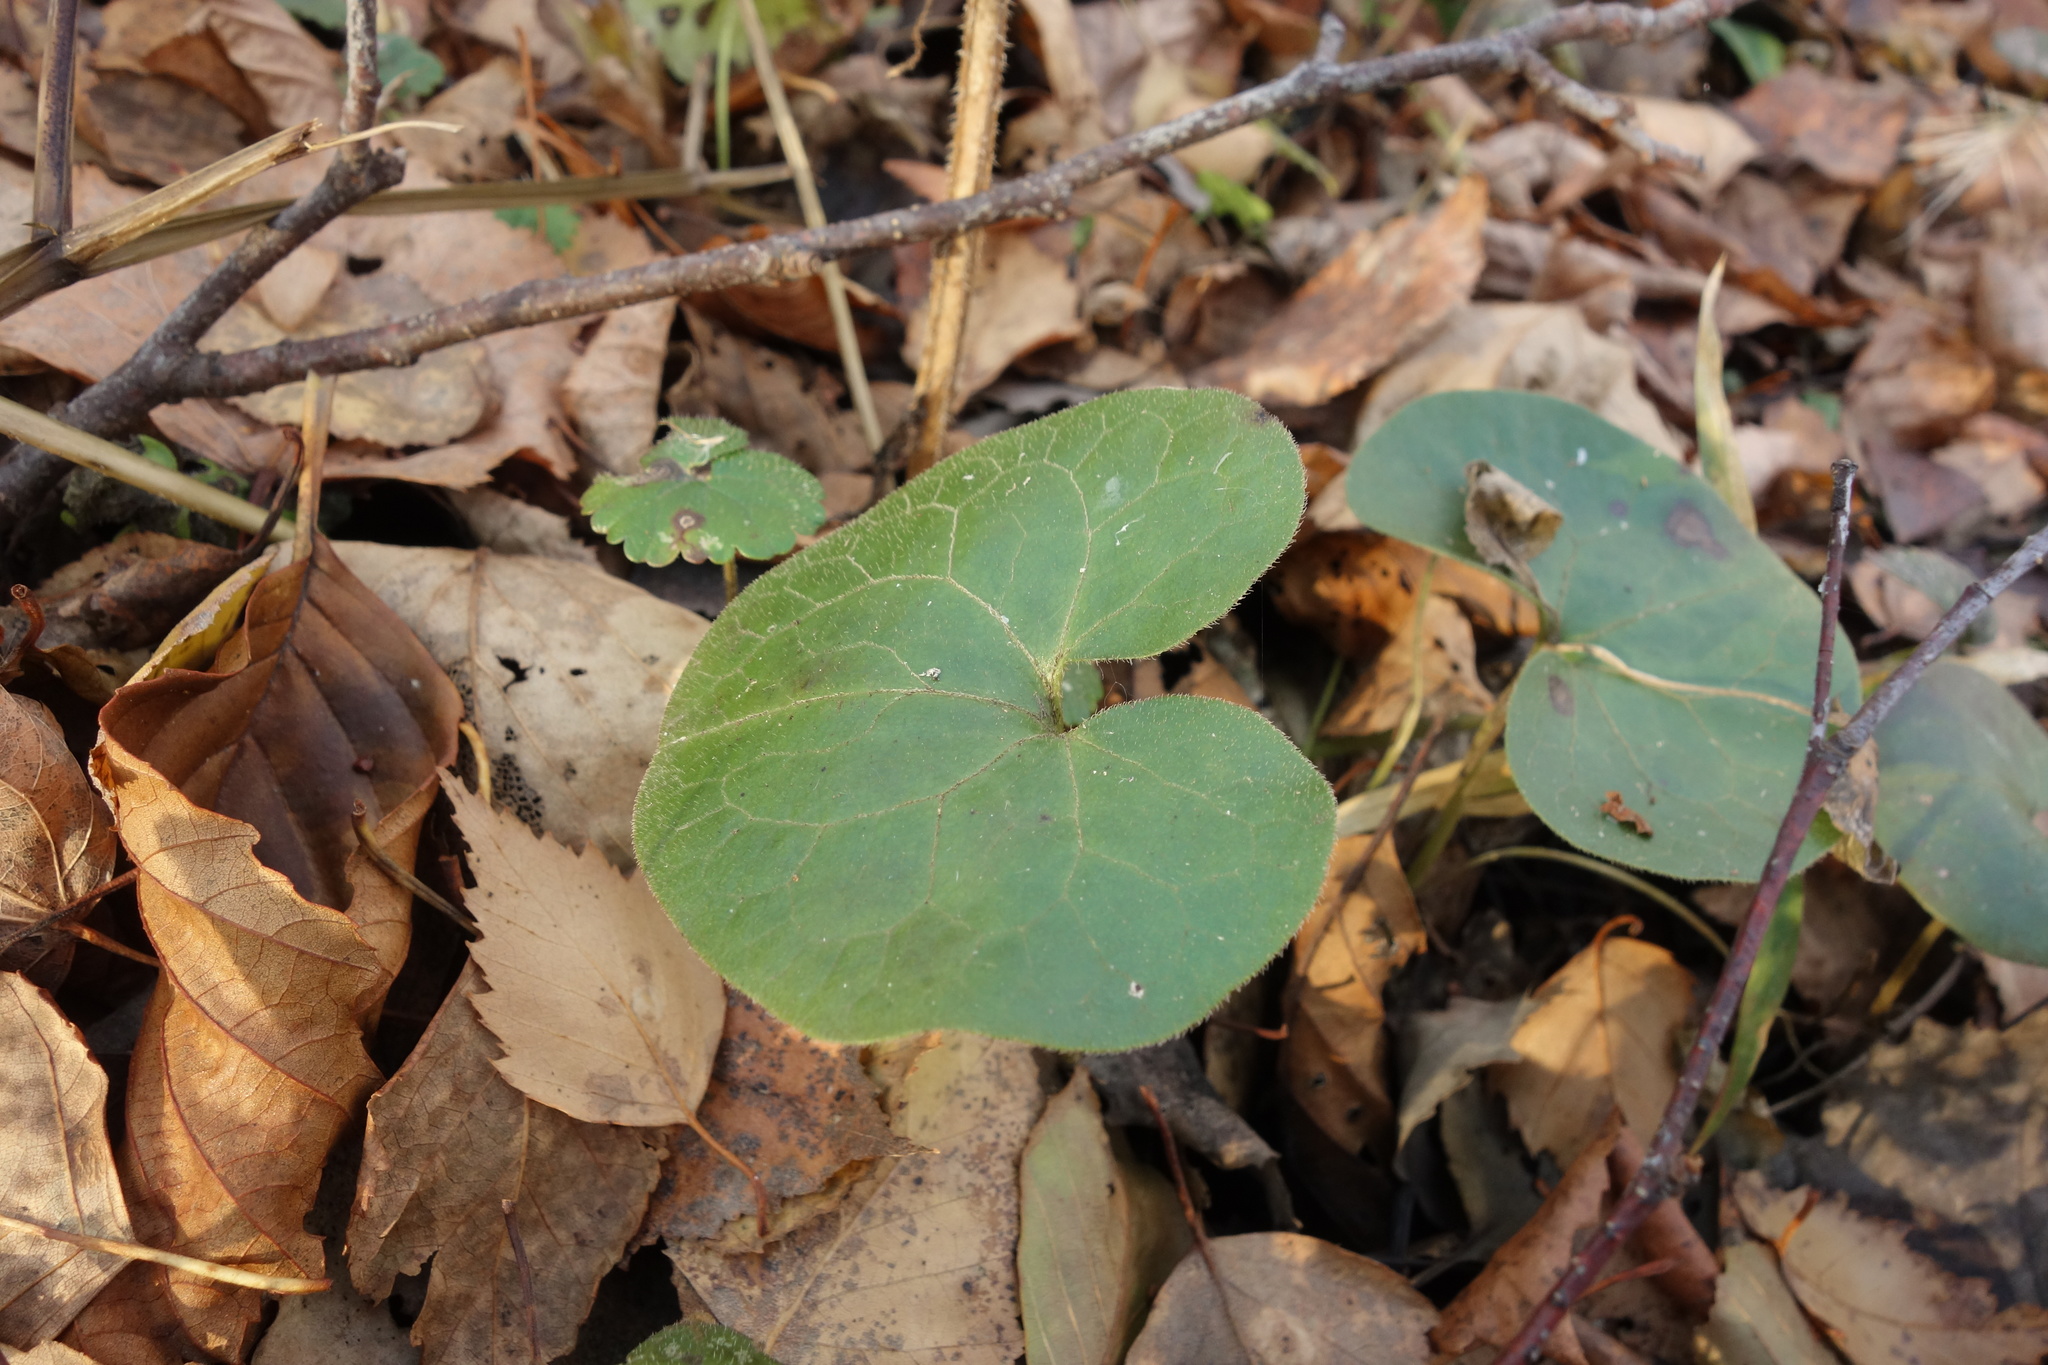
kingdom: Plantae
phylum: Tracheophyta
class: Magnoliopsida
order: Piperales
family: Aristolochiaceae
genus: Asarum
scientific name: Asarum europaeum
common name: Asarabacca
